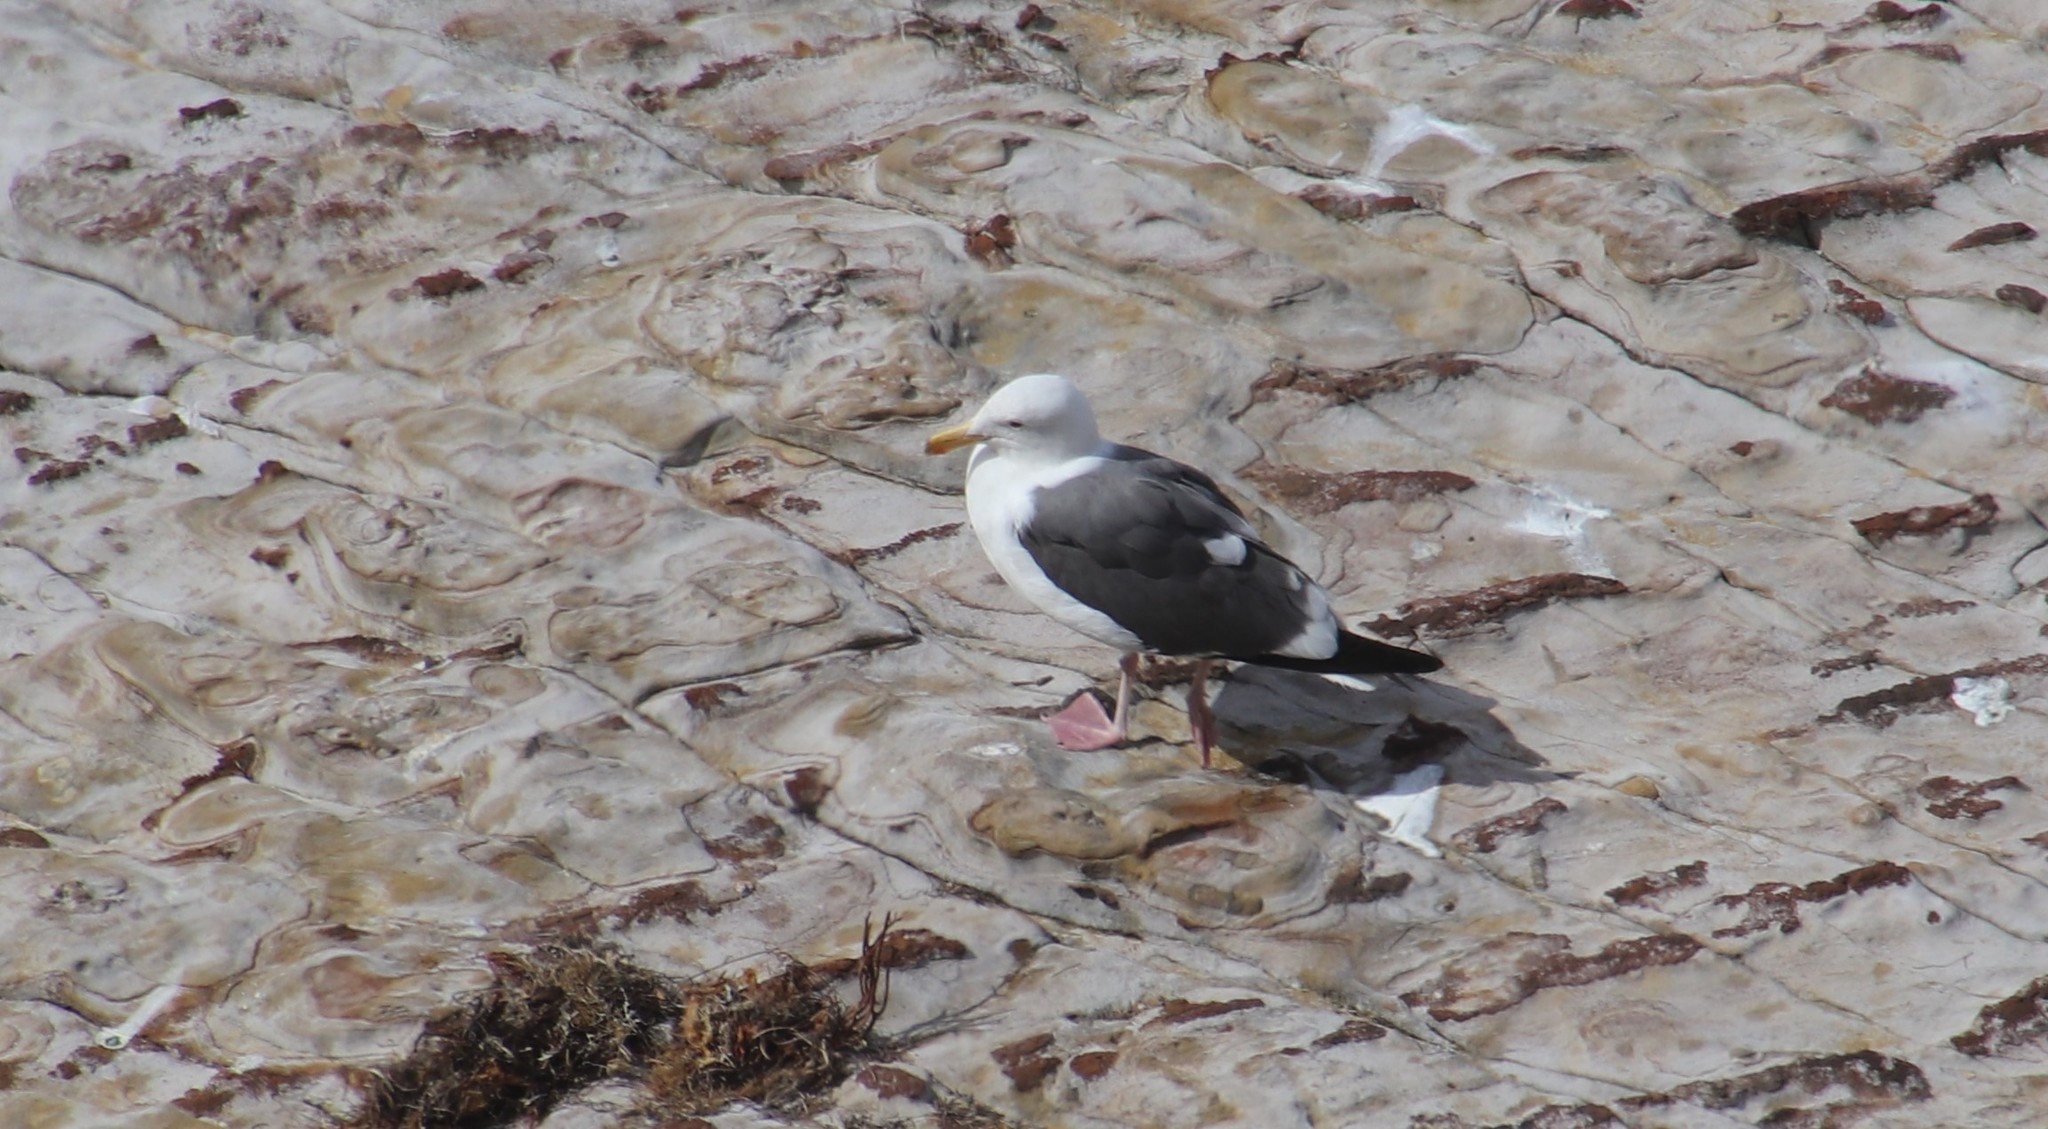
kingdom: Animalia
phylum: Chordata
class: Aves
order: Charadriiformes
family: Laridae
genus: Larus
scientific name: Larus occidentalis
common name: Western gull
